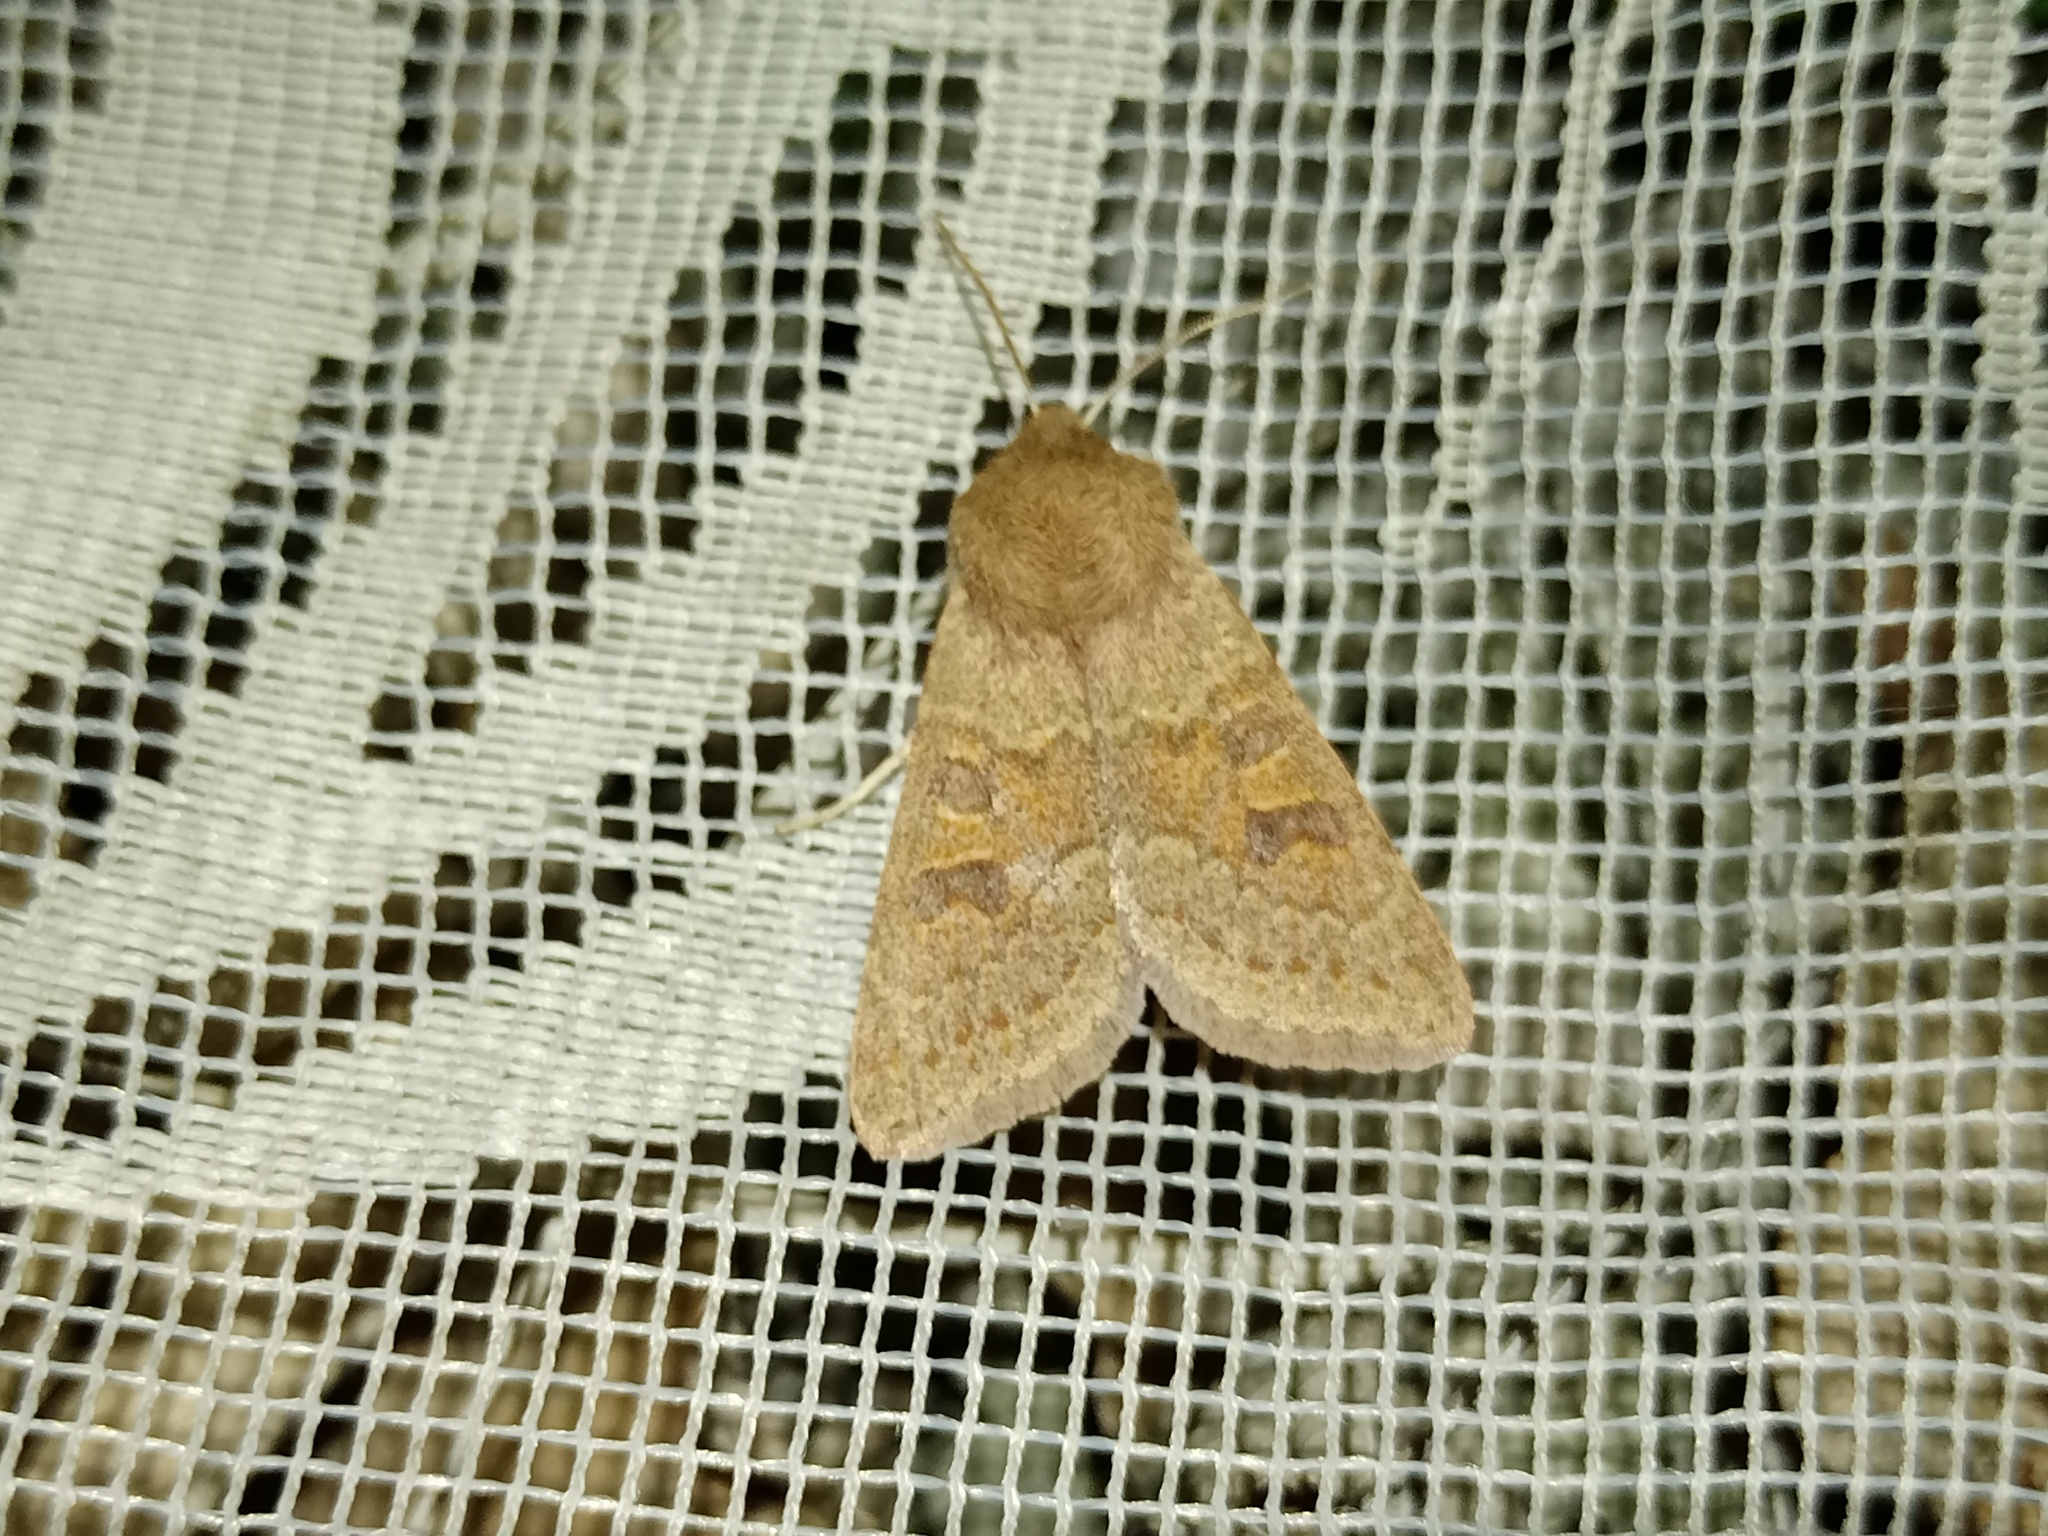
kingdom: Animalia
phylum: Arthropoda
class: Insecta
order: Lepidoptera
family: Noctuidae
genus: Orthosia
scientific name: Orthosia miniosa
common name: Blossom underwing
